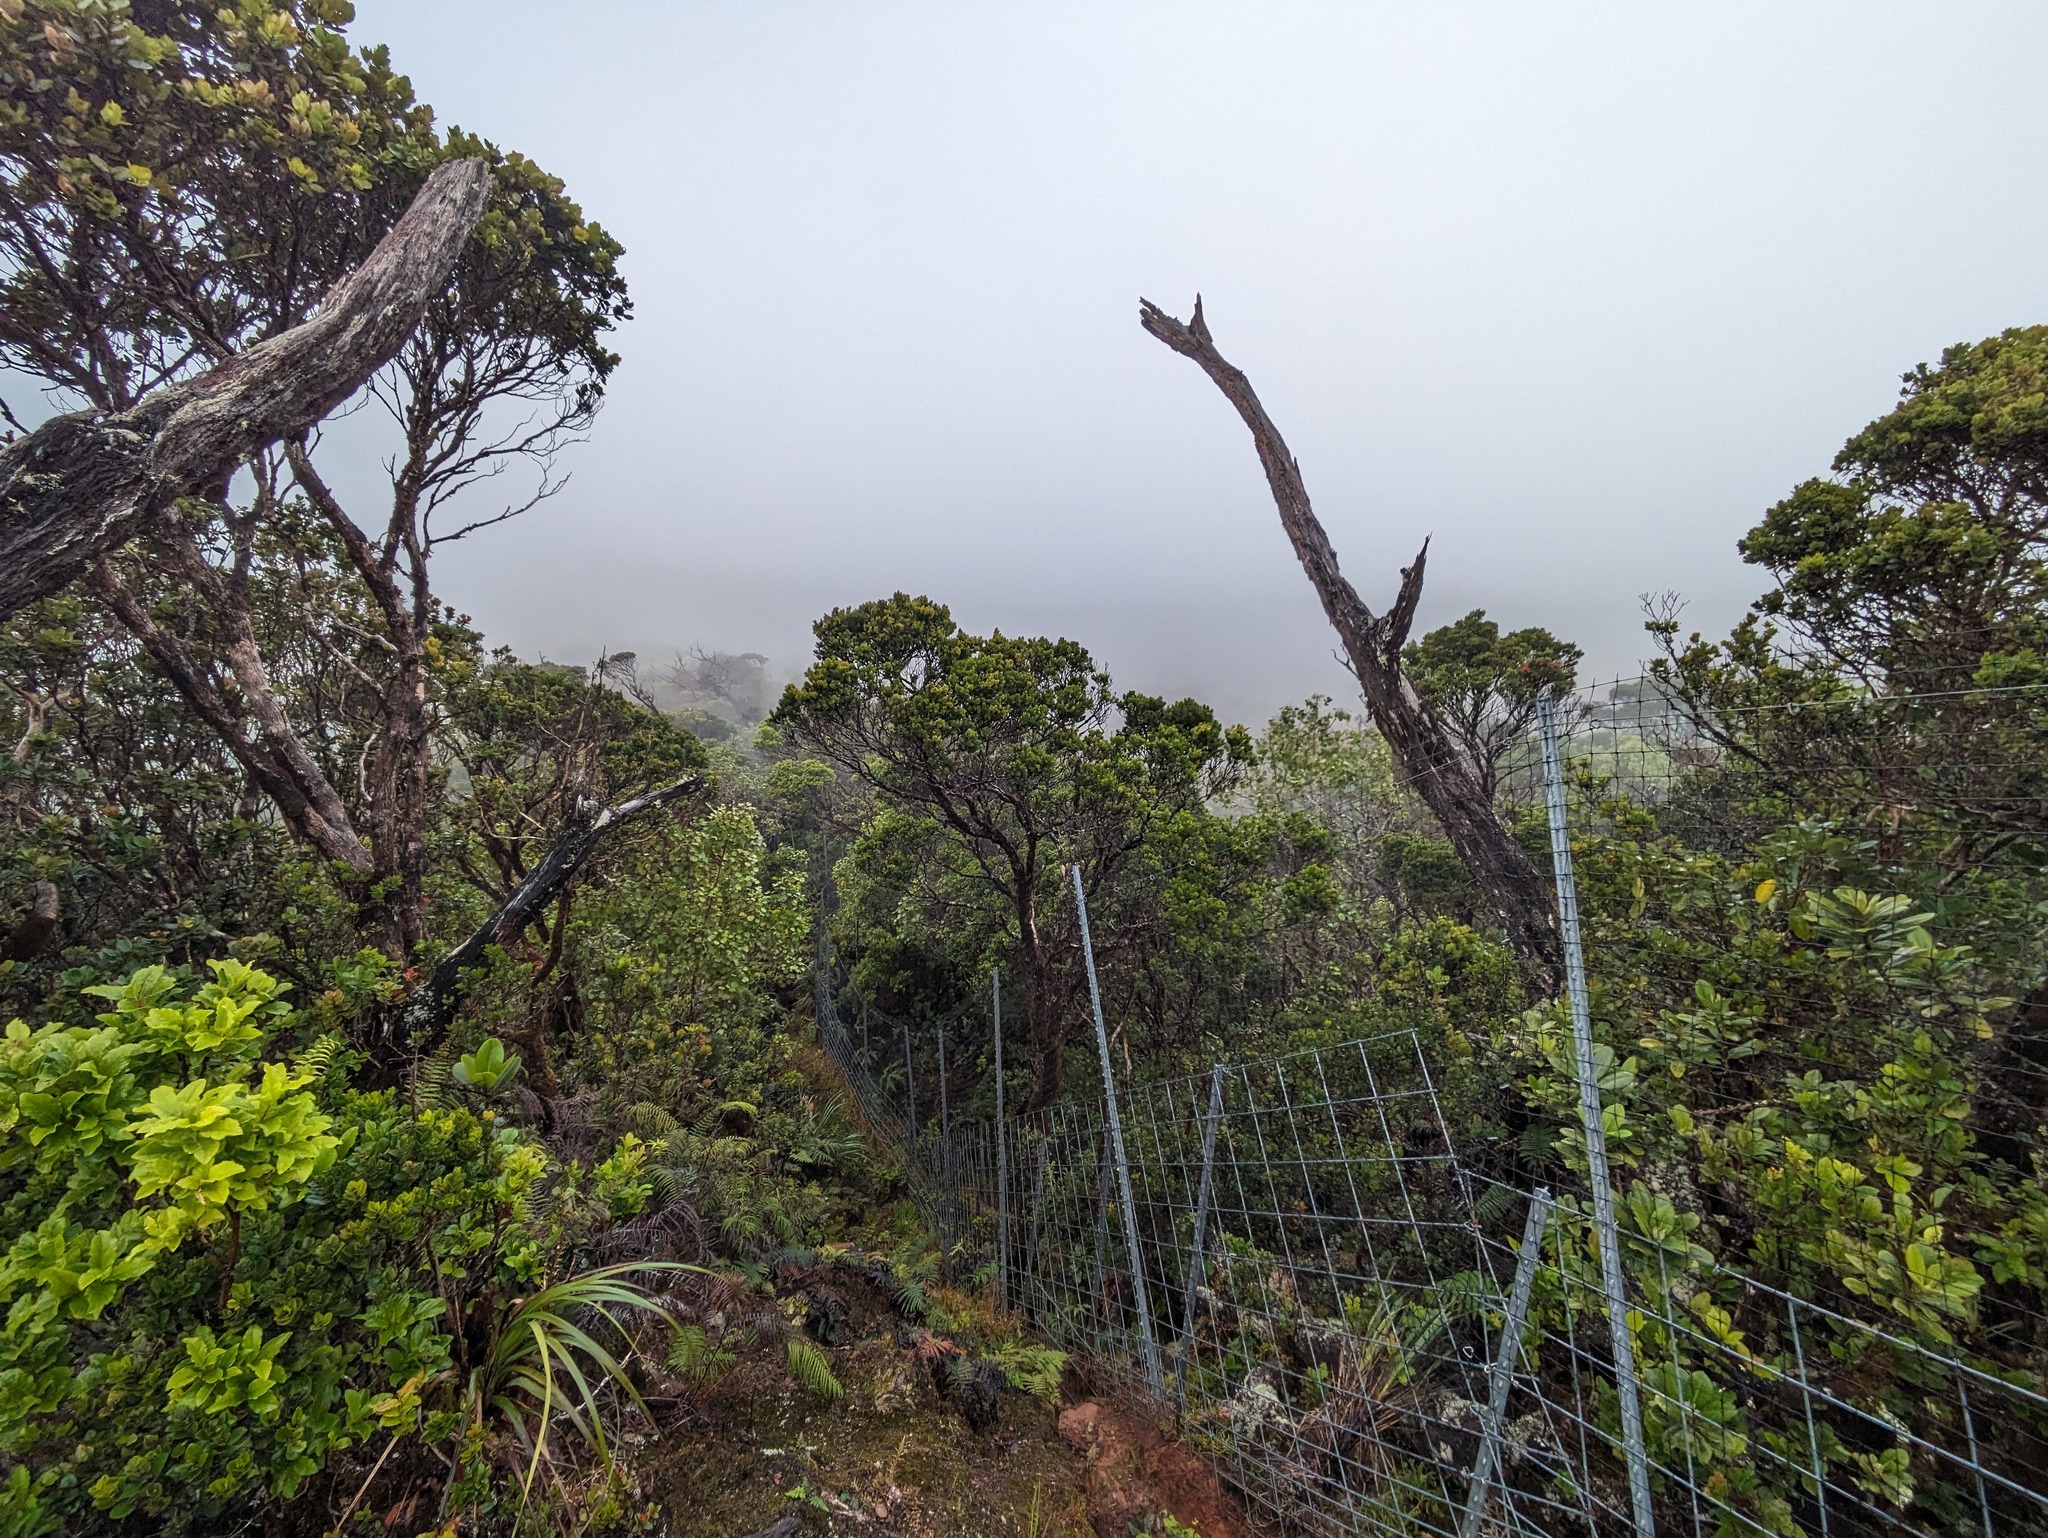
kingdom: Plantae
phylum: Tracheophyta
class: Magnoliopsida
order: Myrtales
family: Myrtaceae
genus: Metrosideros
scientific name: Metrosideros polymorpha
